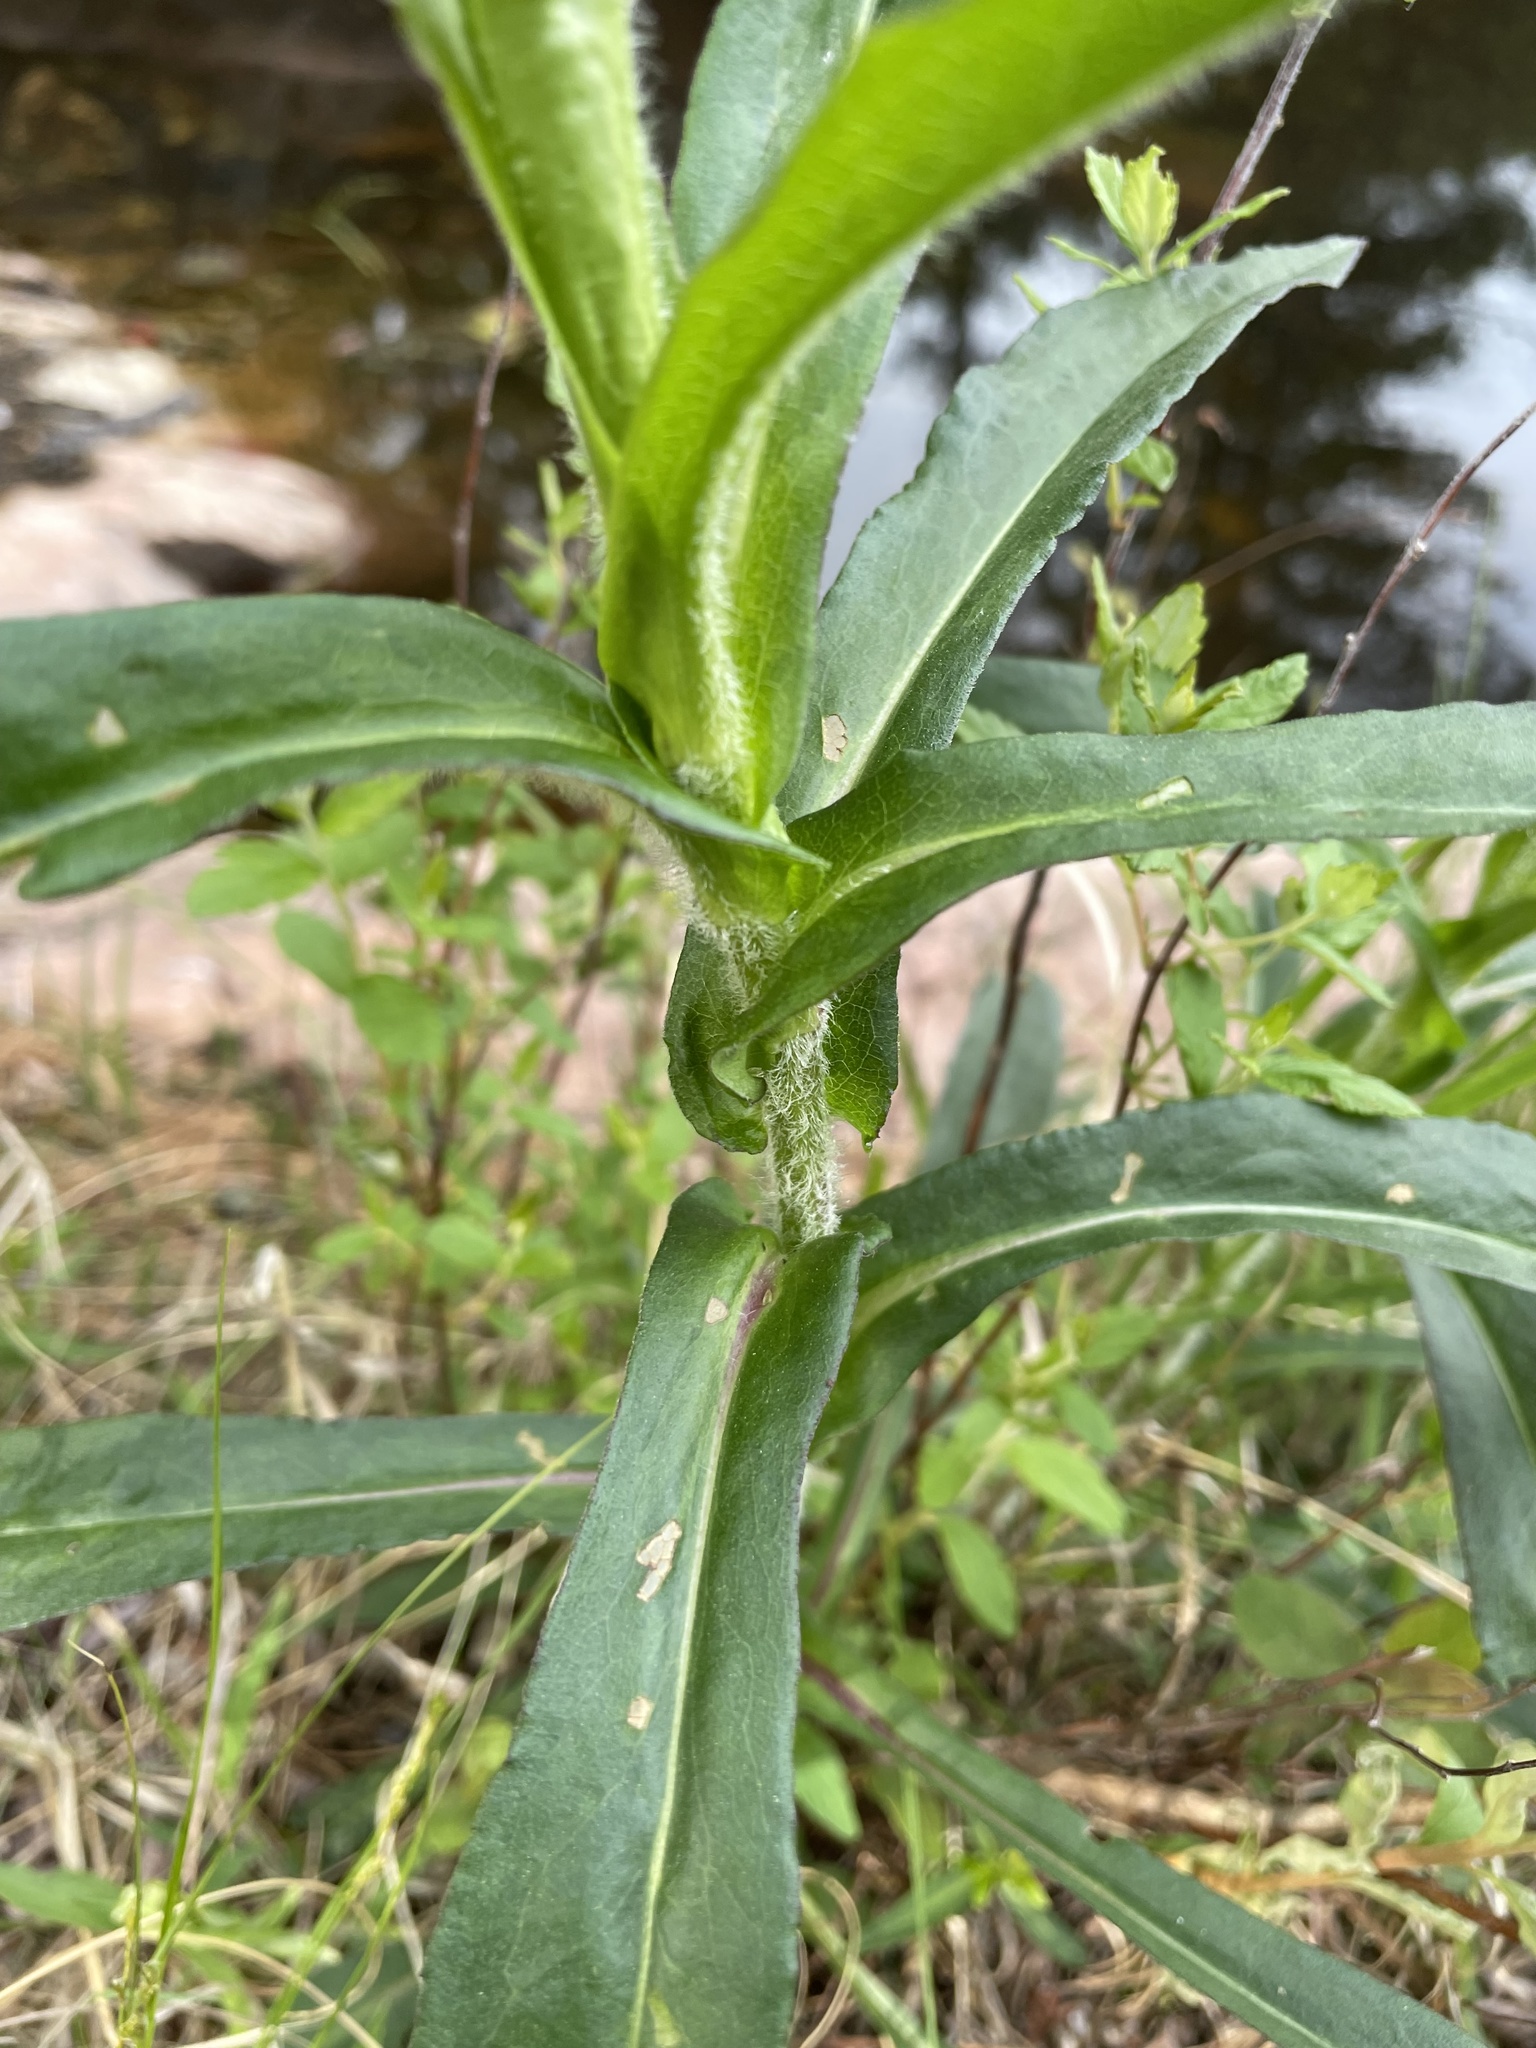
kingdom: Plantae
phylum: Tracheophyta
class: Magnoliopsida
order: Asterales
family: Asteraceae
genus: Symphyotrichum
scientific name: Symphyotrichum puniceum
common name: Bog aster
